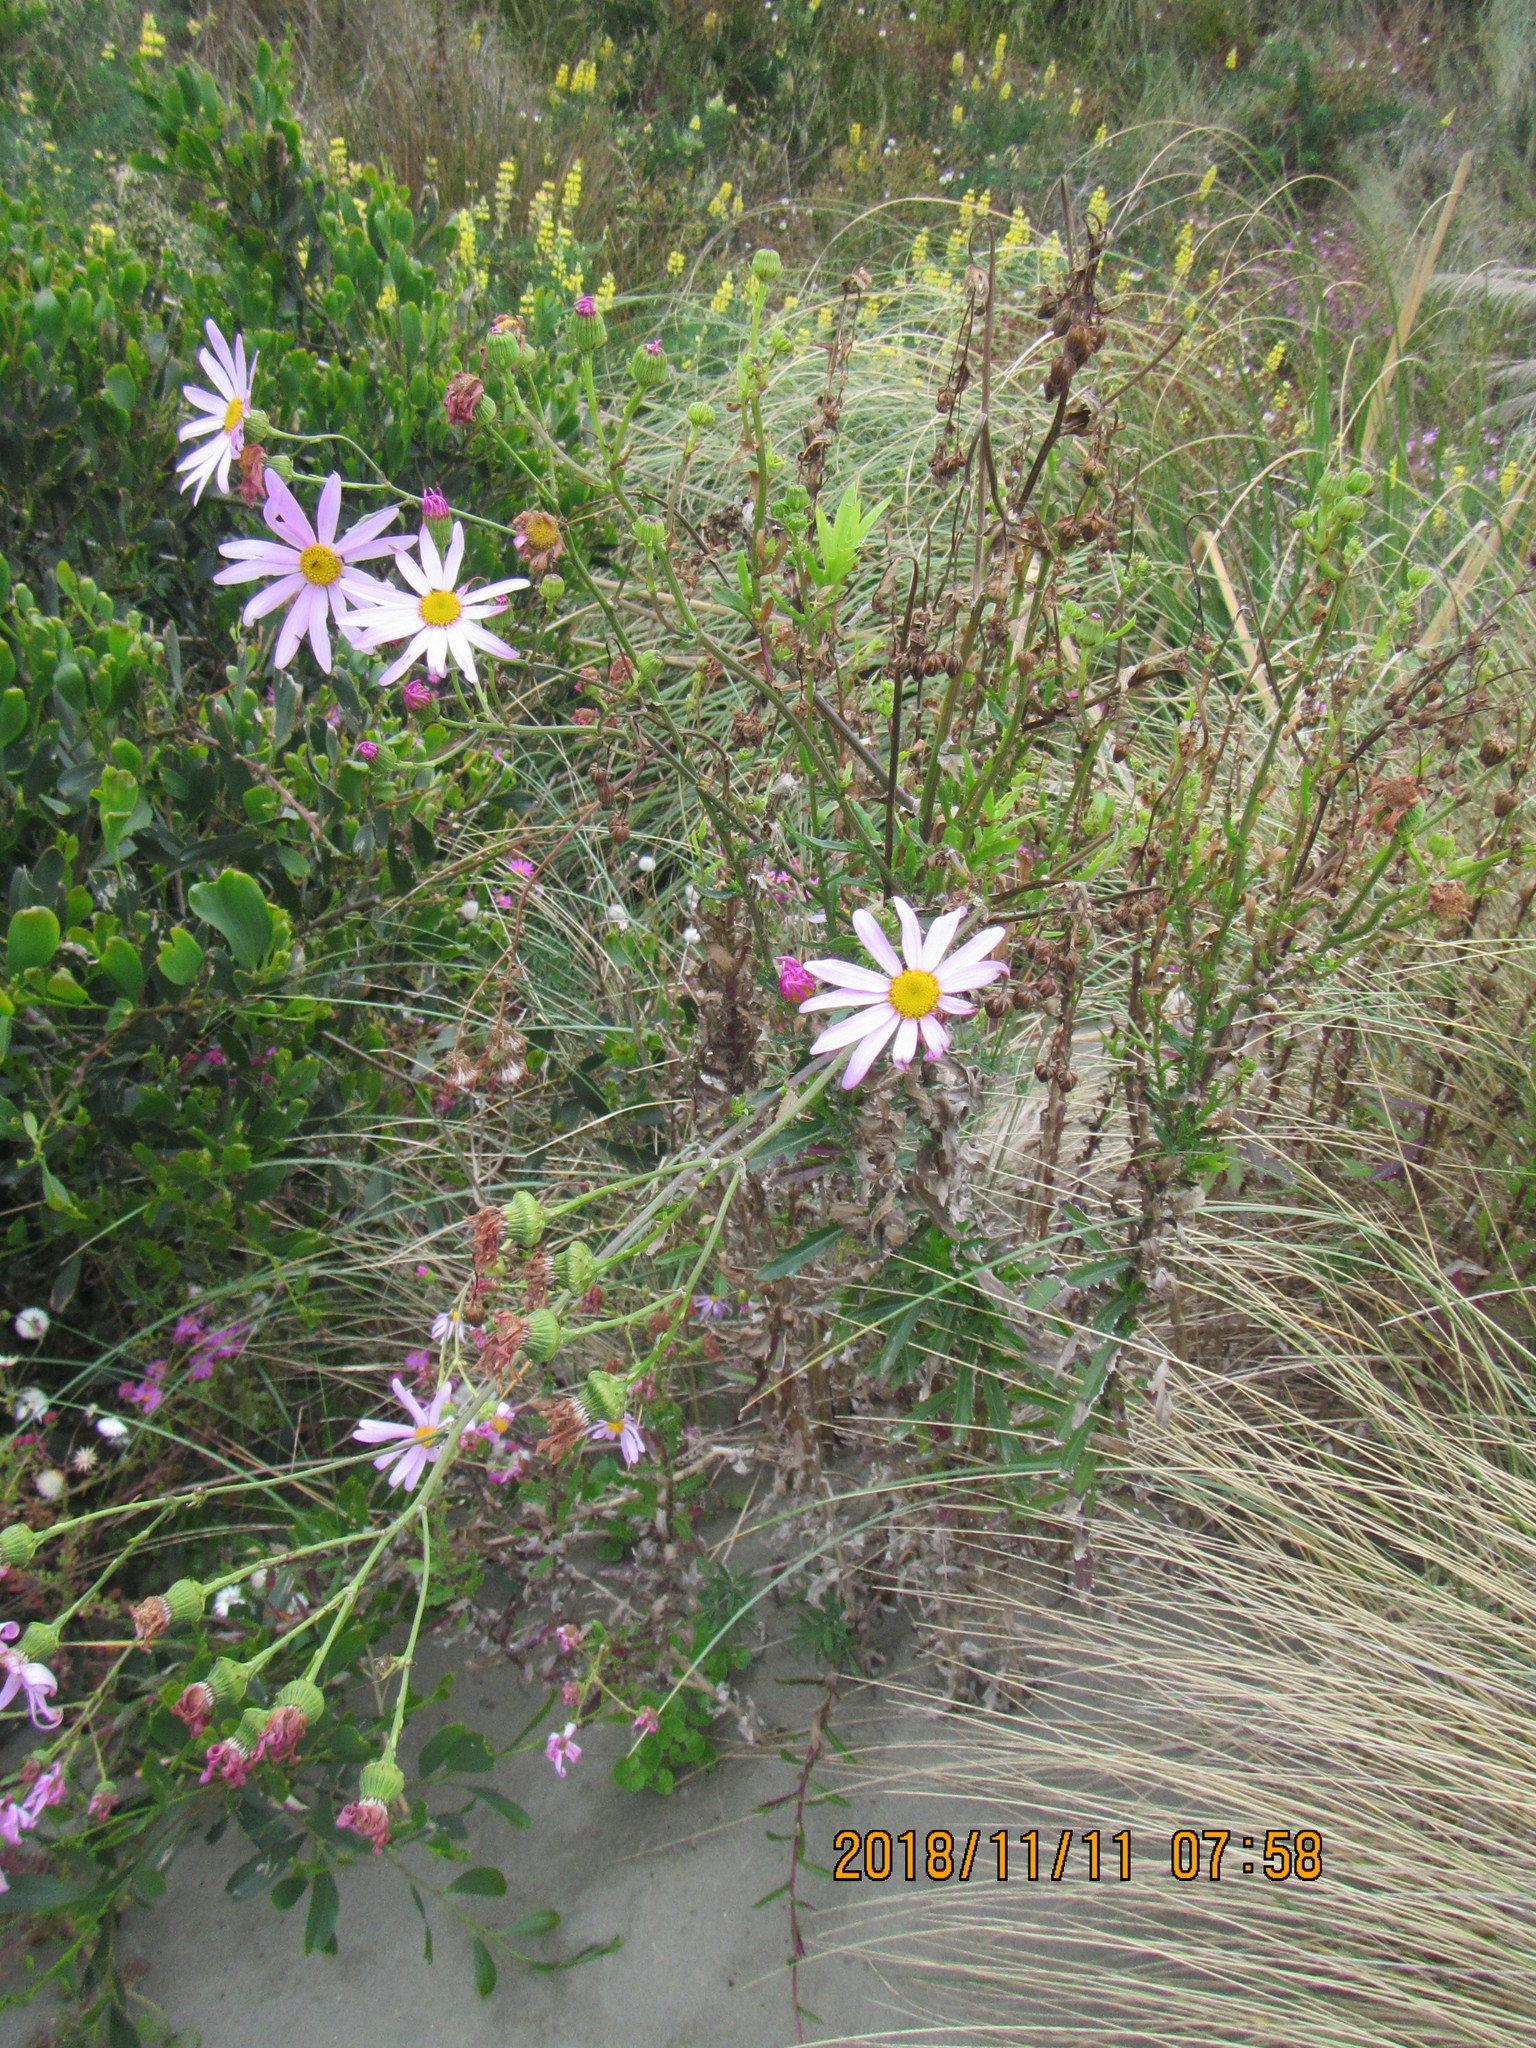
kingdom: Plantae
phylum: Tracheophyta
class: Magnoliopsida
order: Asterales
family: Asteraceae
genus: Senecio
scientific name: Senecio glastifolius
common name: Woad-leaved ragwort
